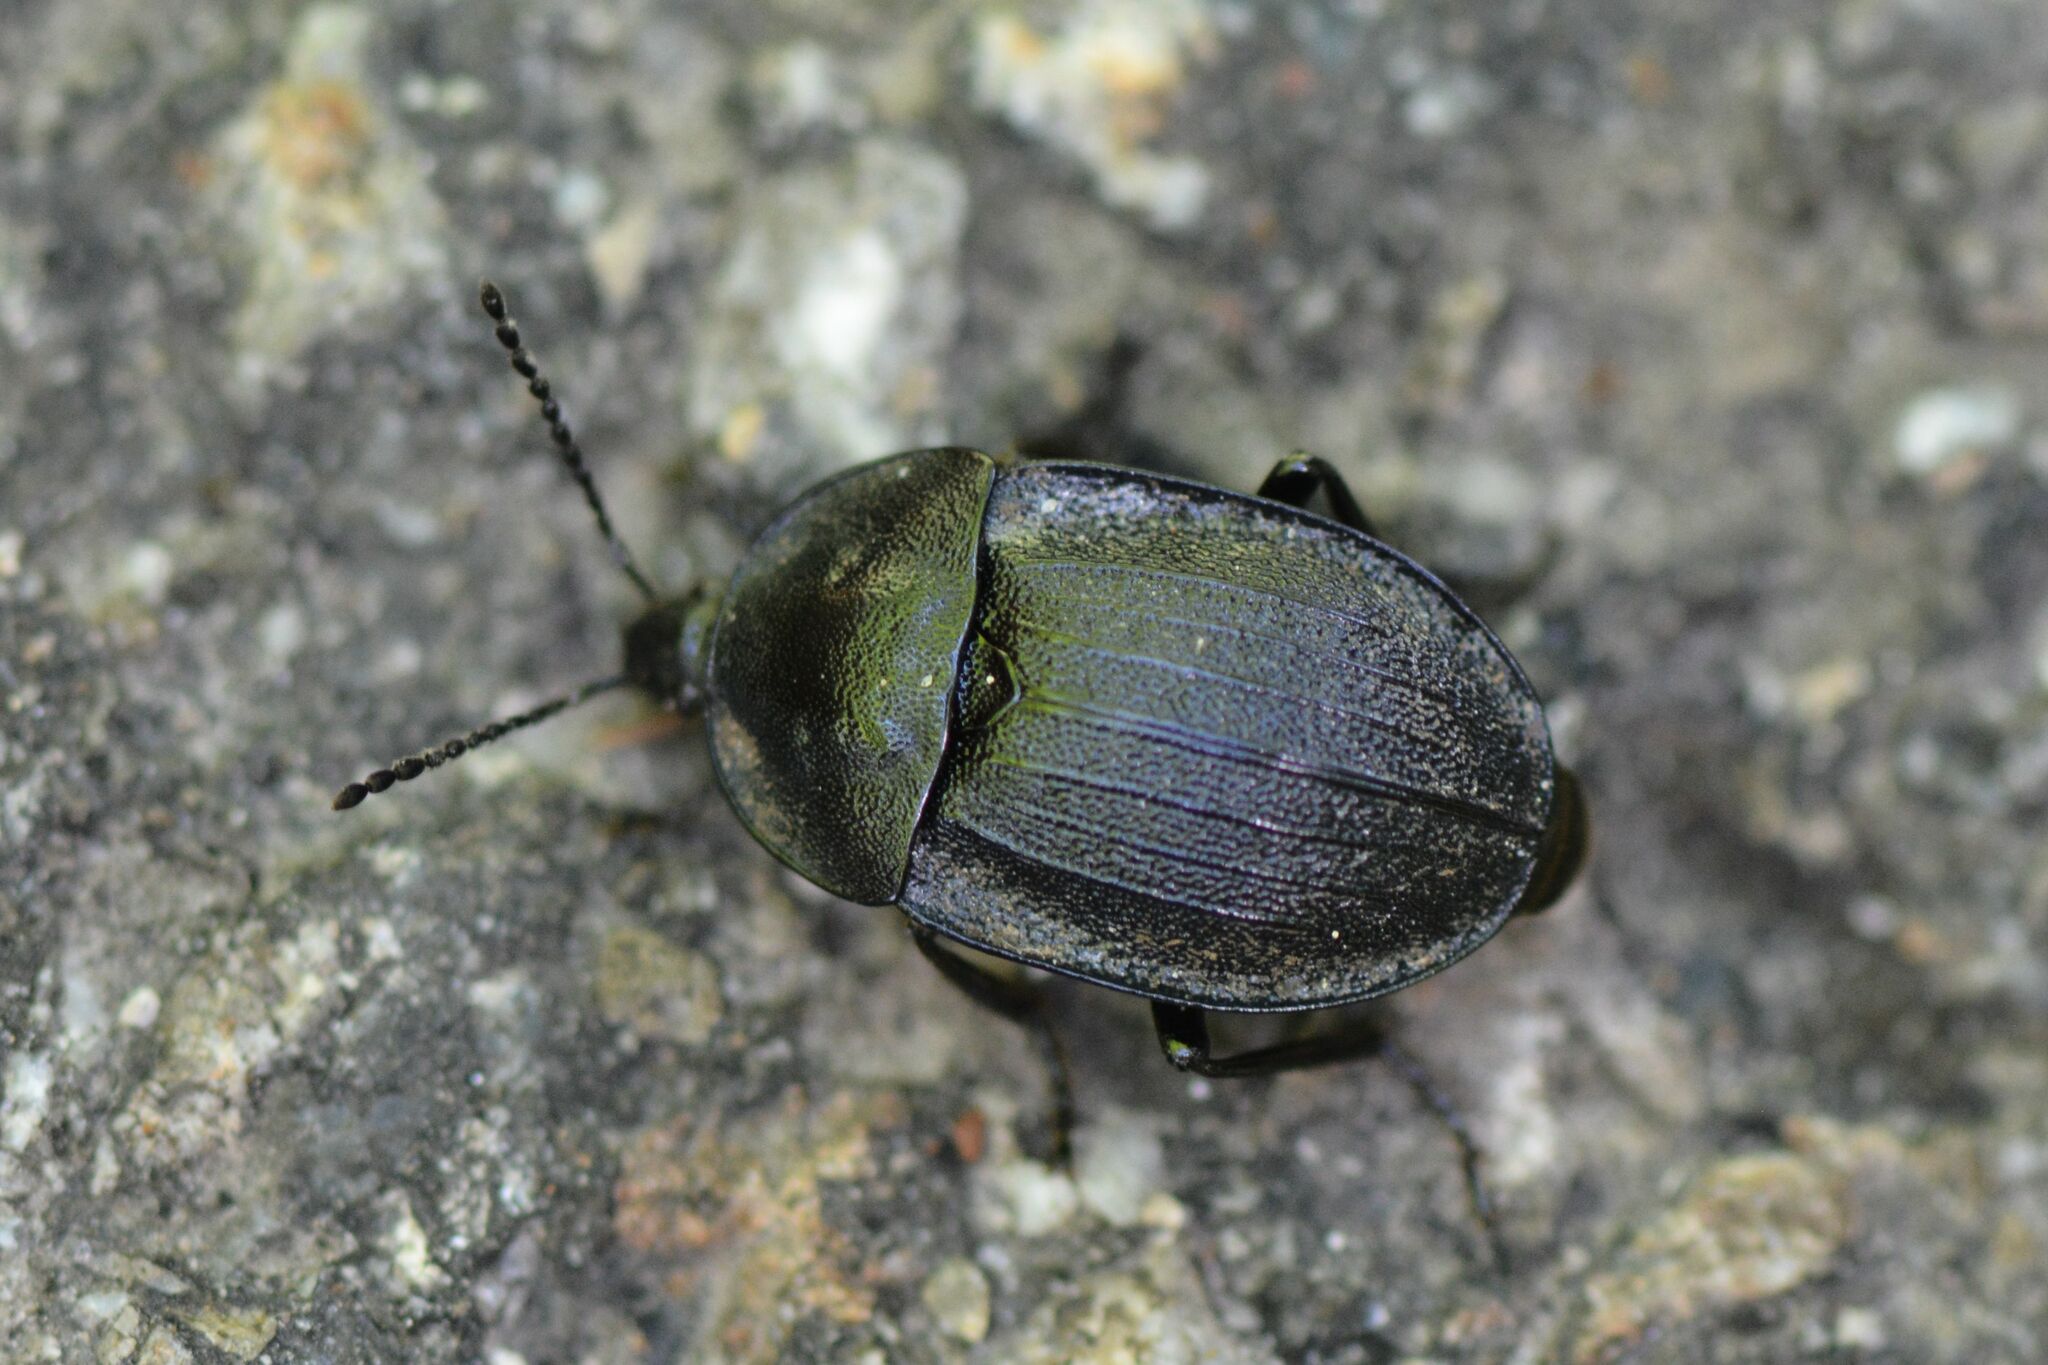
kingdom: Animalia
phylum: Arthropoda
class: Insecta
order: Coleoptera
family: Staphylinidae
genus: Silpha
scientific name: Silpha atrata
